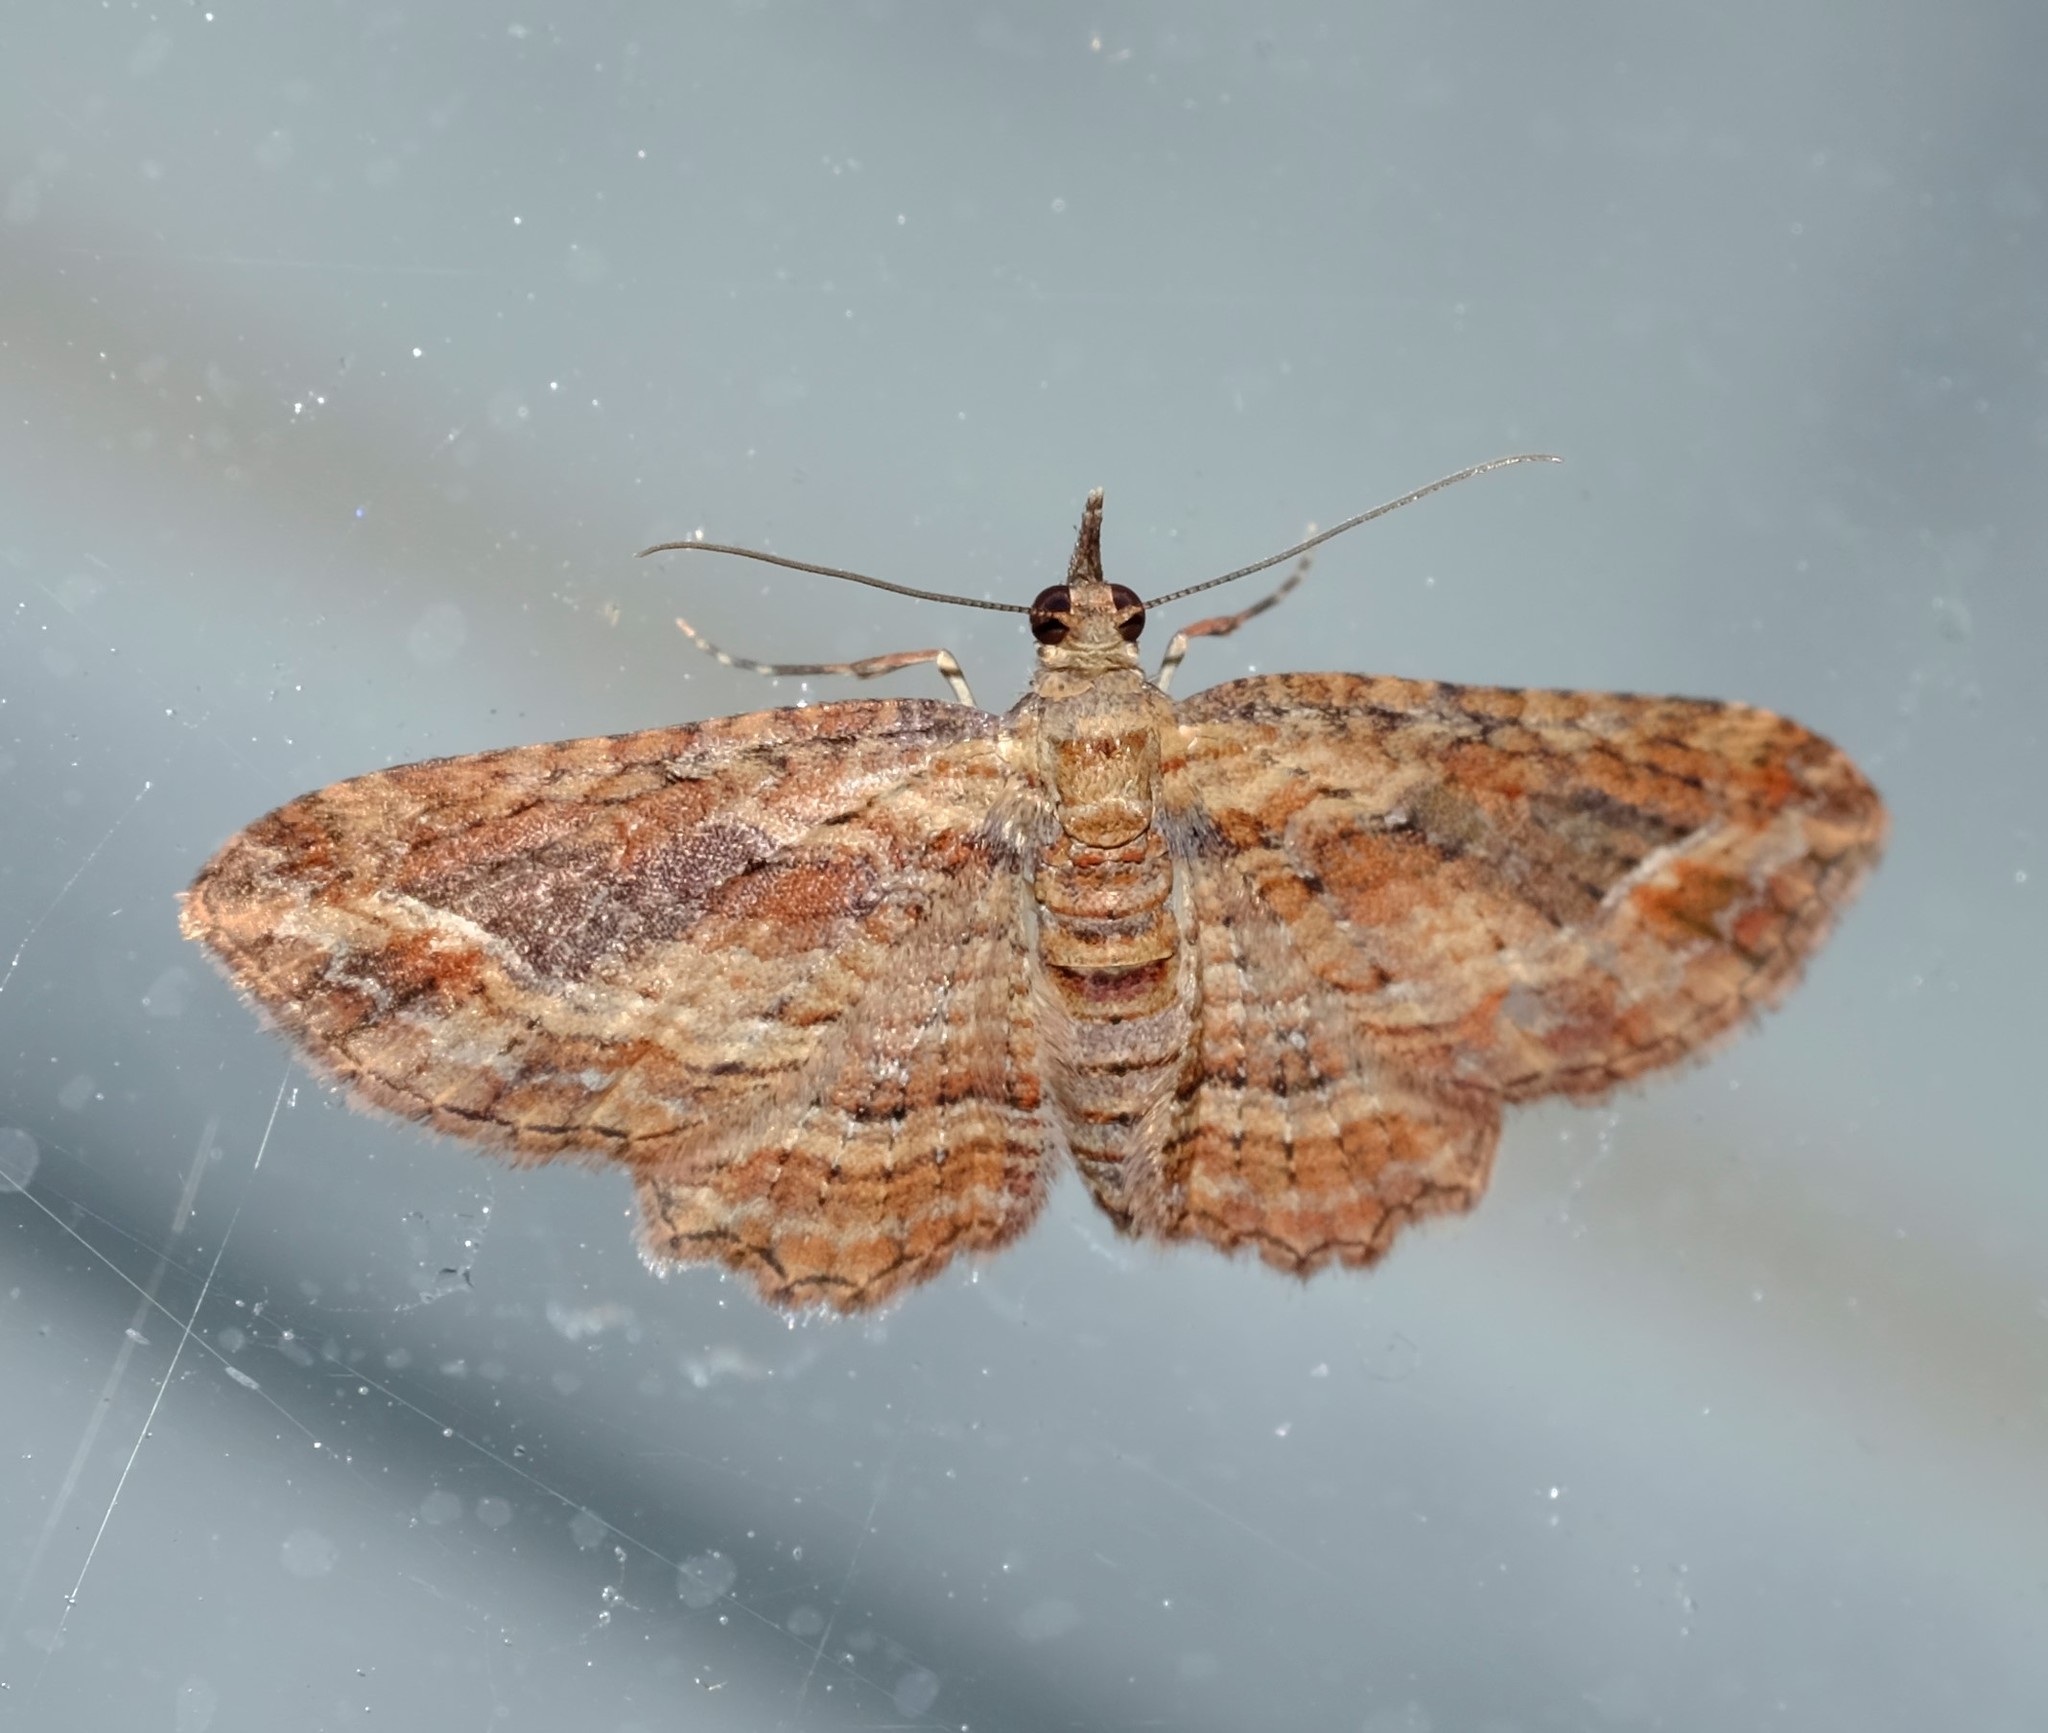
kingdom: Animalia
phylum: Arthropoda
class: Insecta
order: Lepidoptera
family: Geometridae
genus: Chloroclystis
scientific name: Chloroclystis filata
